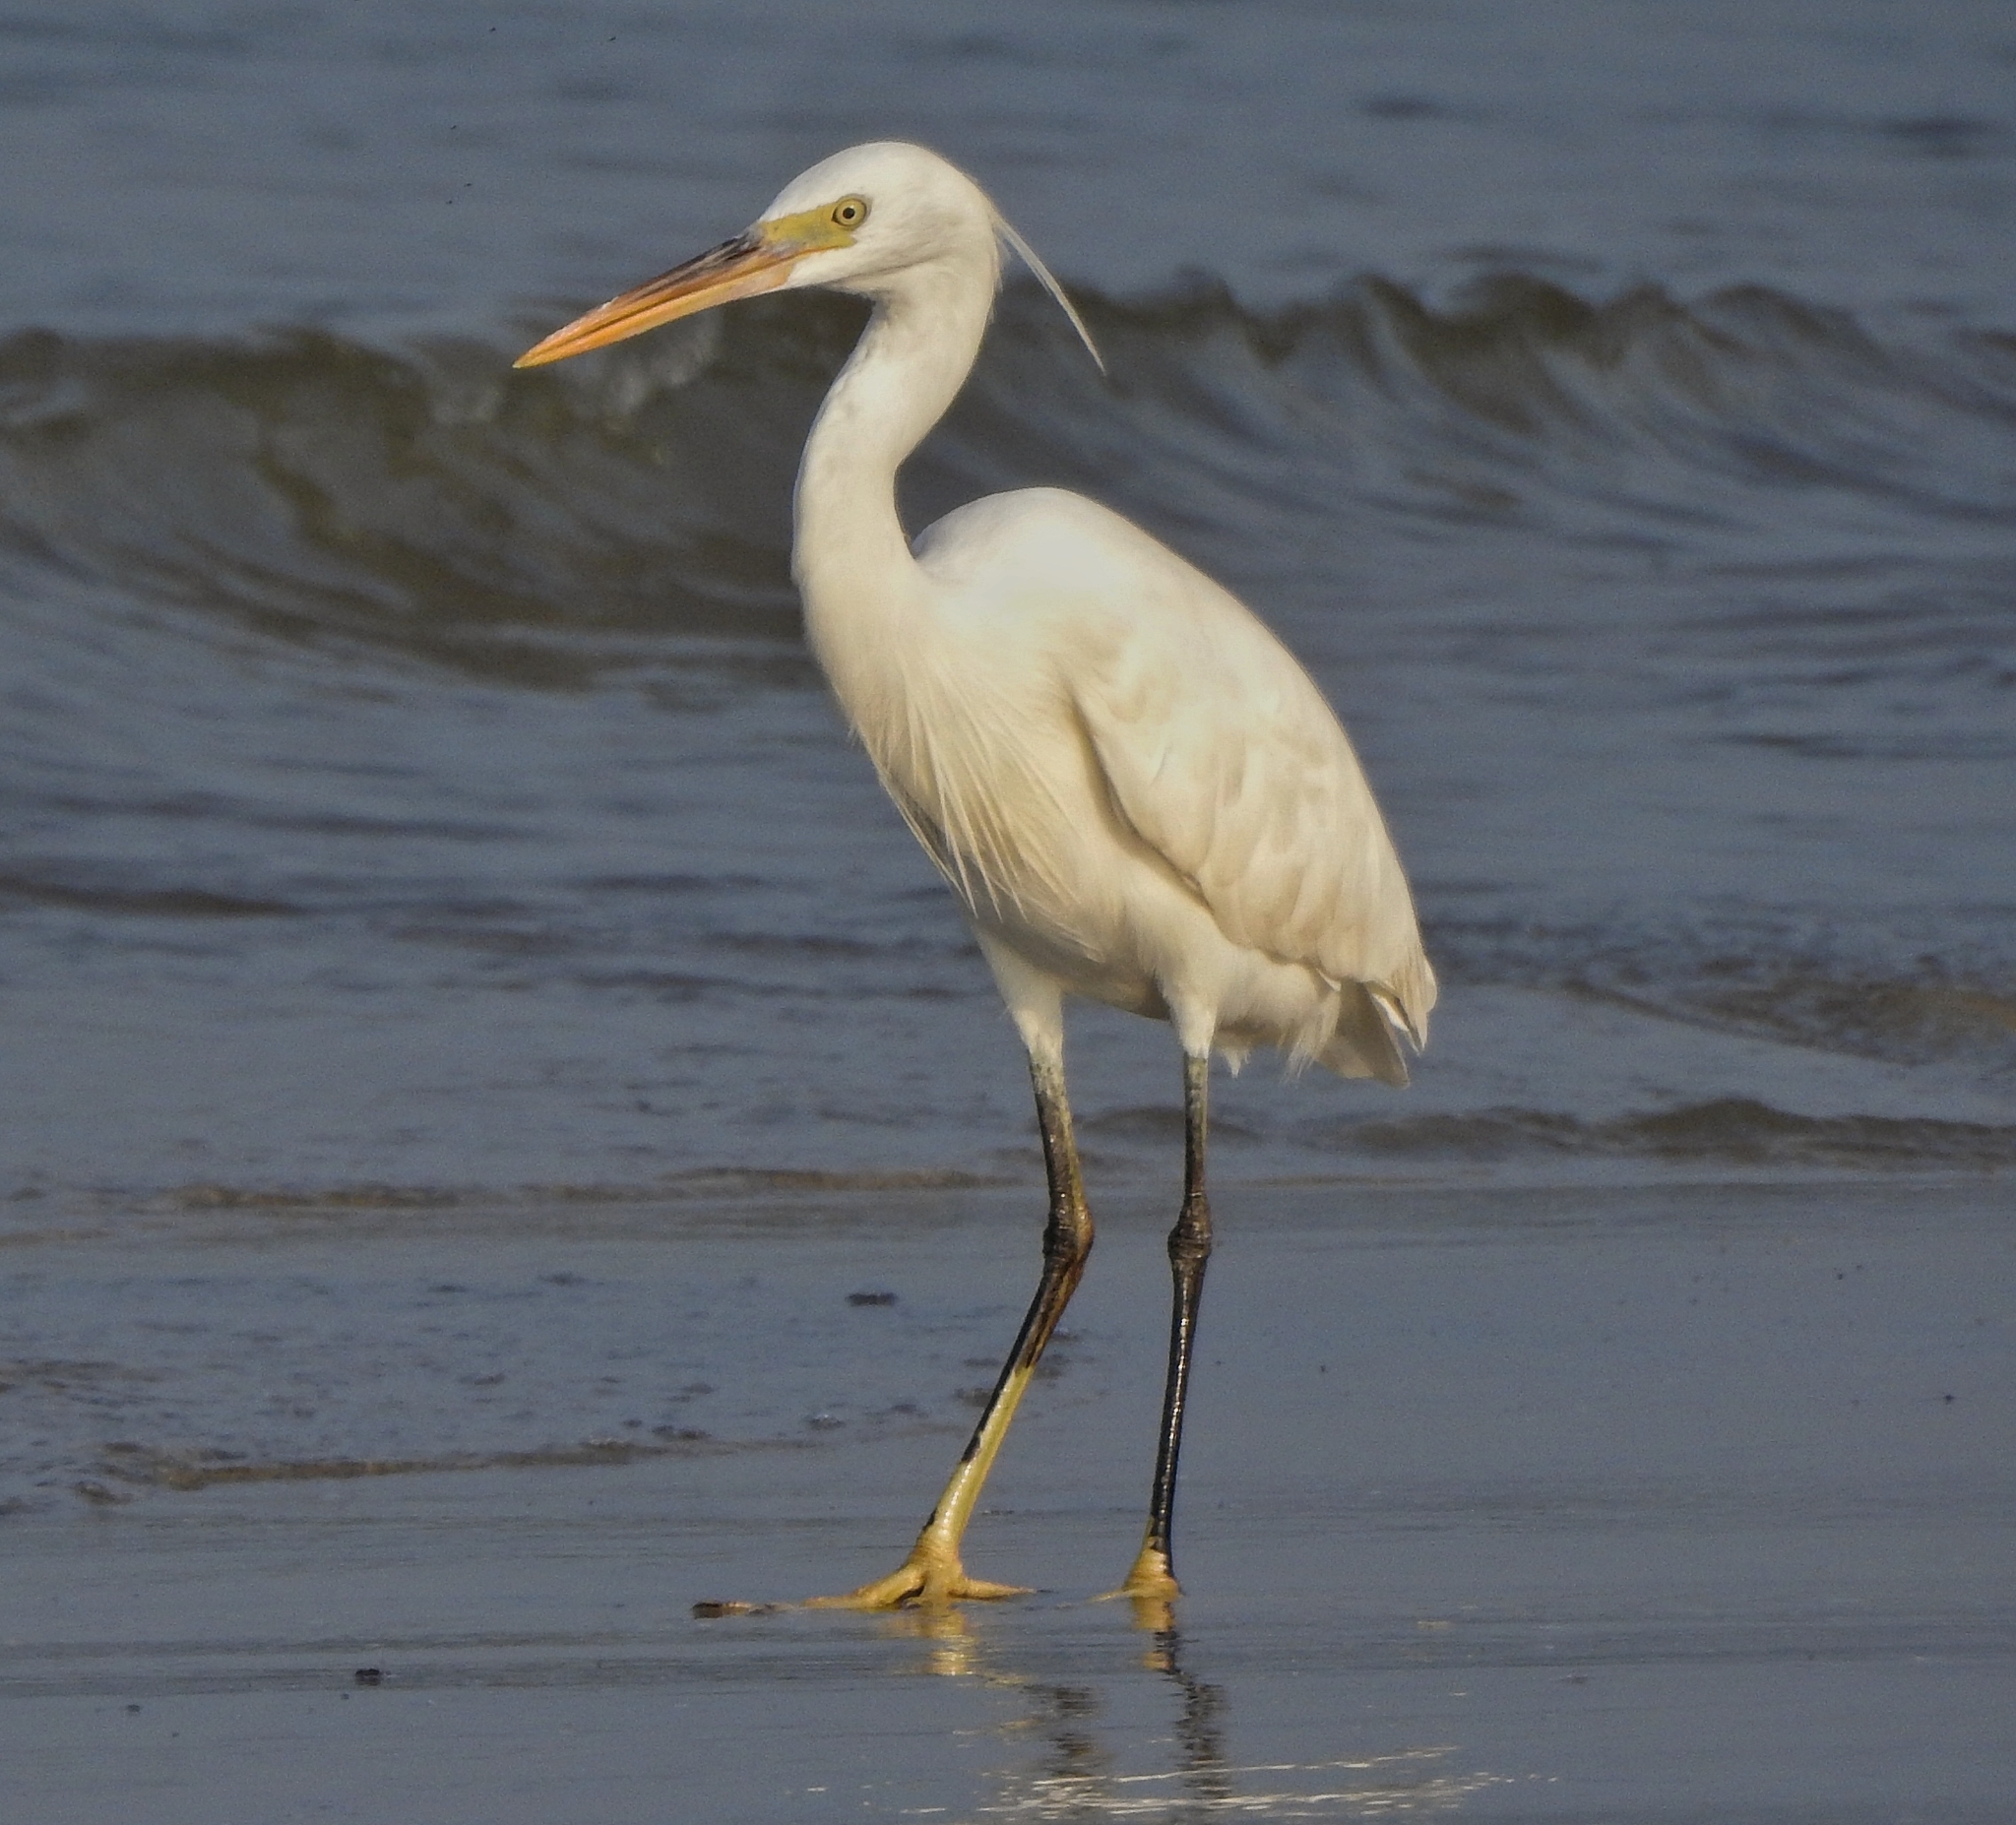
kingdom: Animalia
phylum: Chordata
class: Aves
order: Pelecaniformes
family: Ardeidae
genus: Egretta
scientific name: Egretta gularis
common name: Western reef-heron
